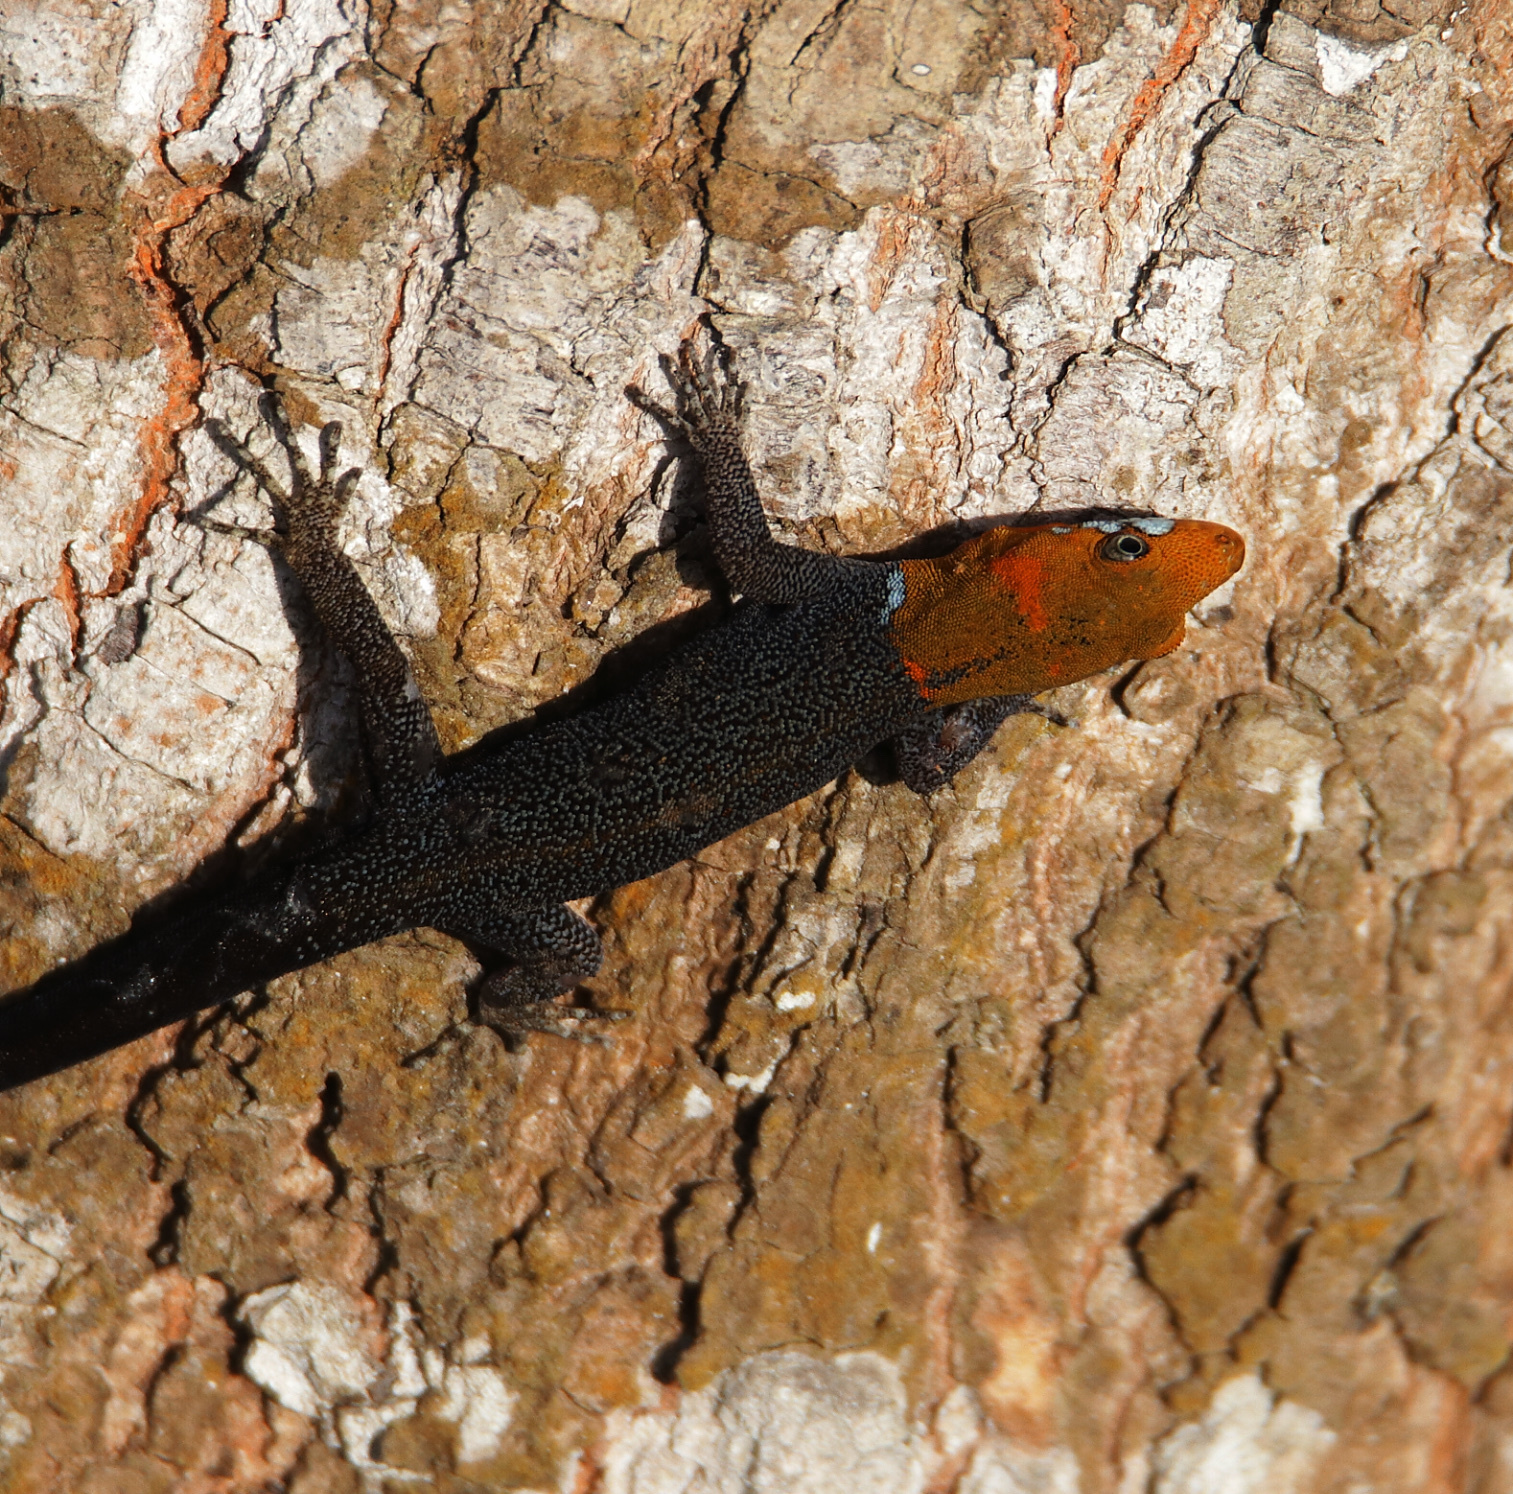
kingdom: Animalia
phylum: Chordata
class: Squamata
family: Sphaerodactylidae
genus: Gonatodes
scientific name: Gonatodes albogularis
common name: Yellow-headed gecko
